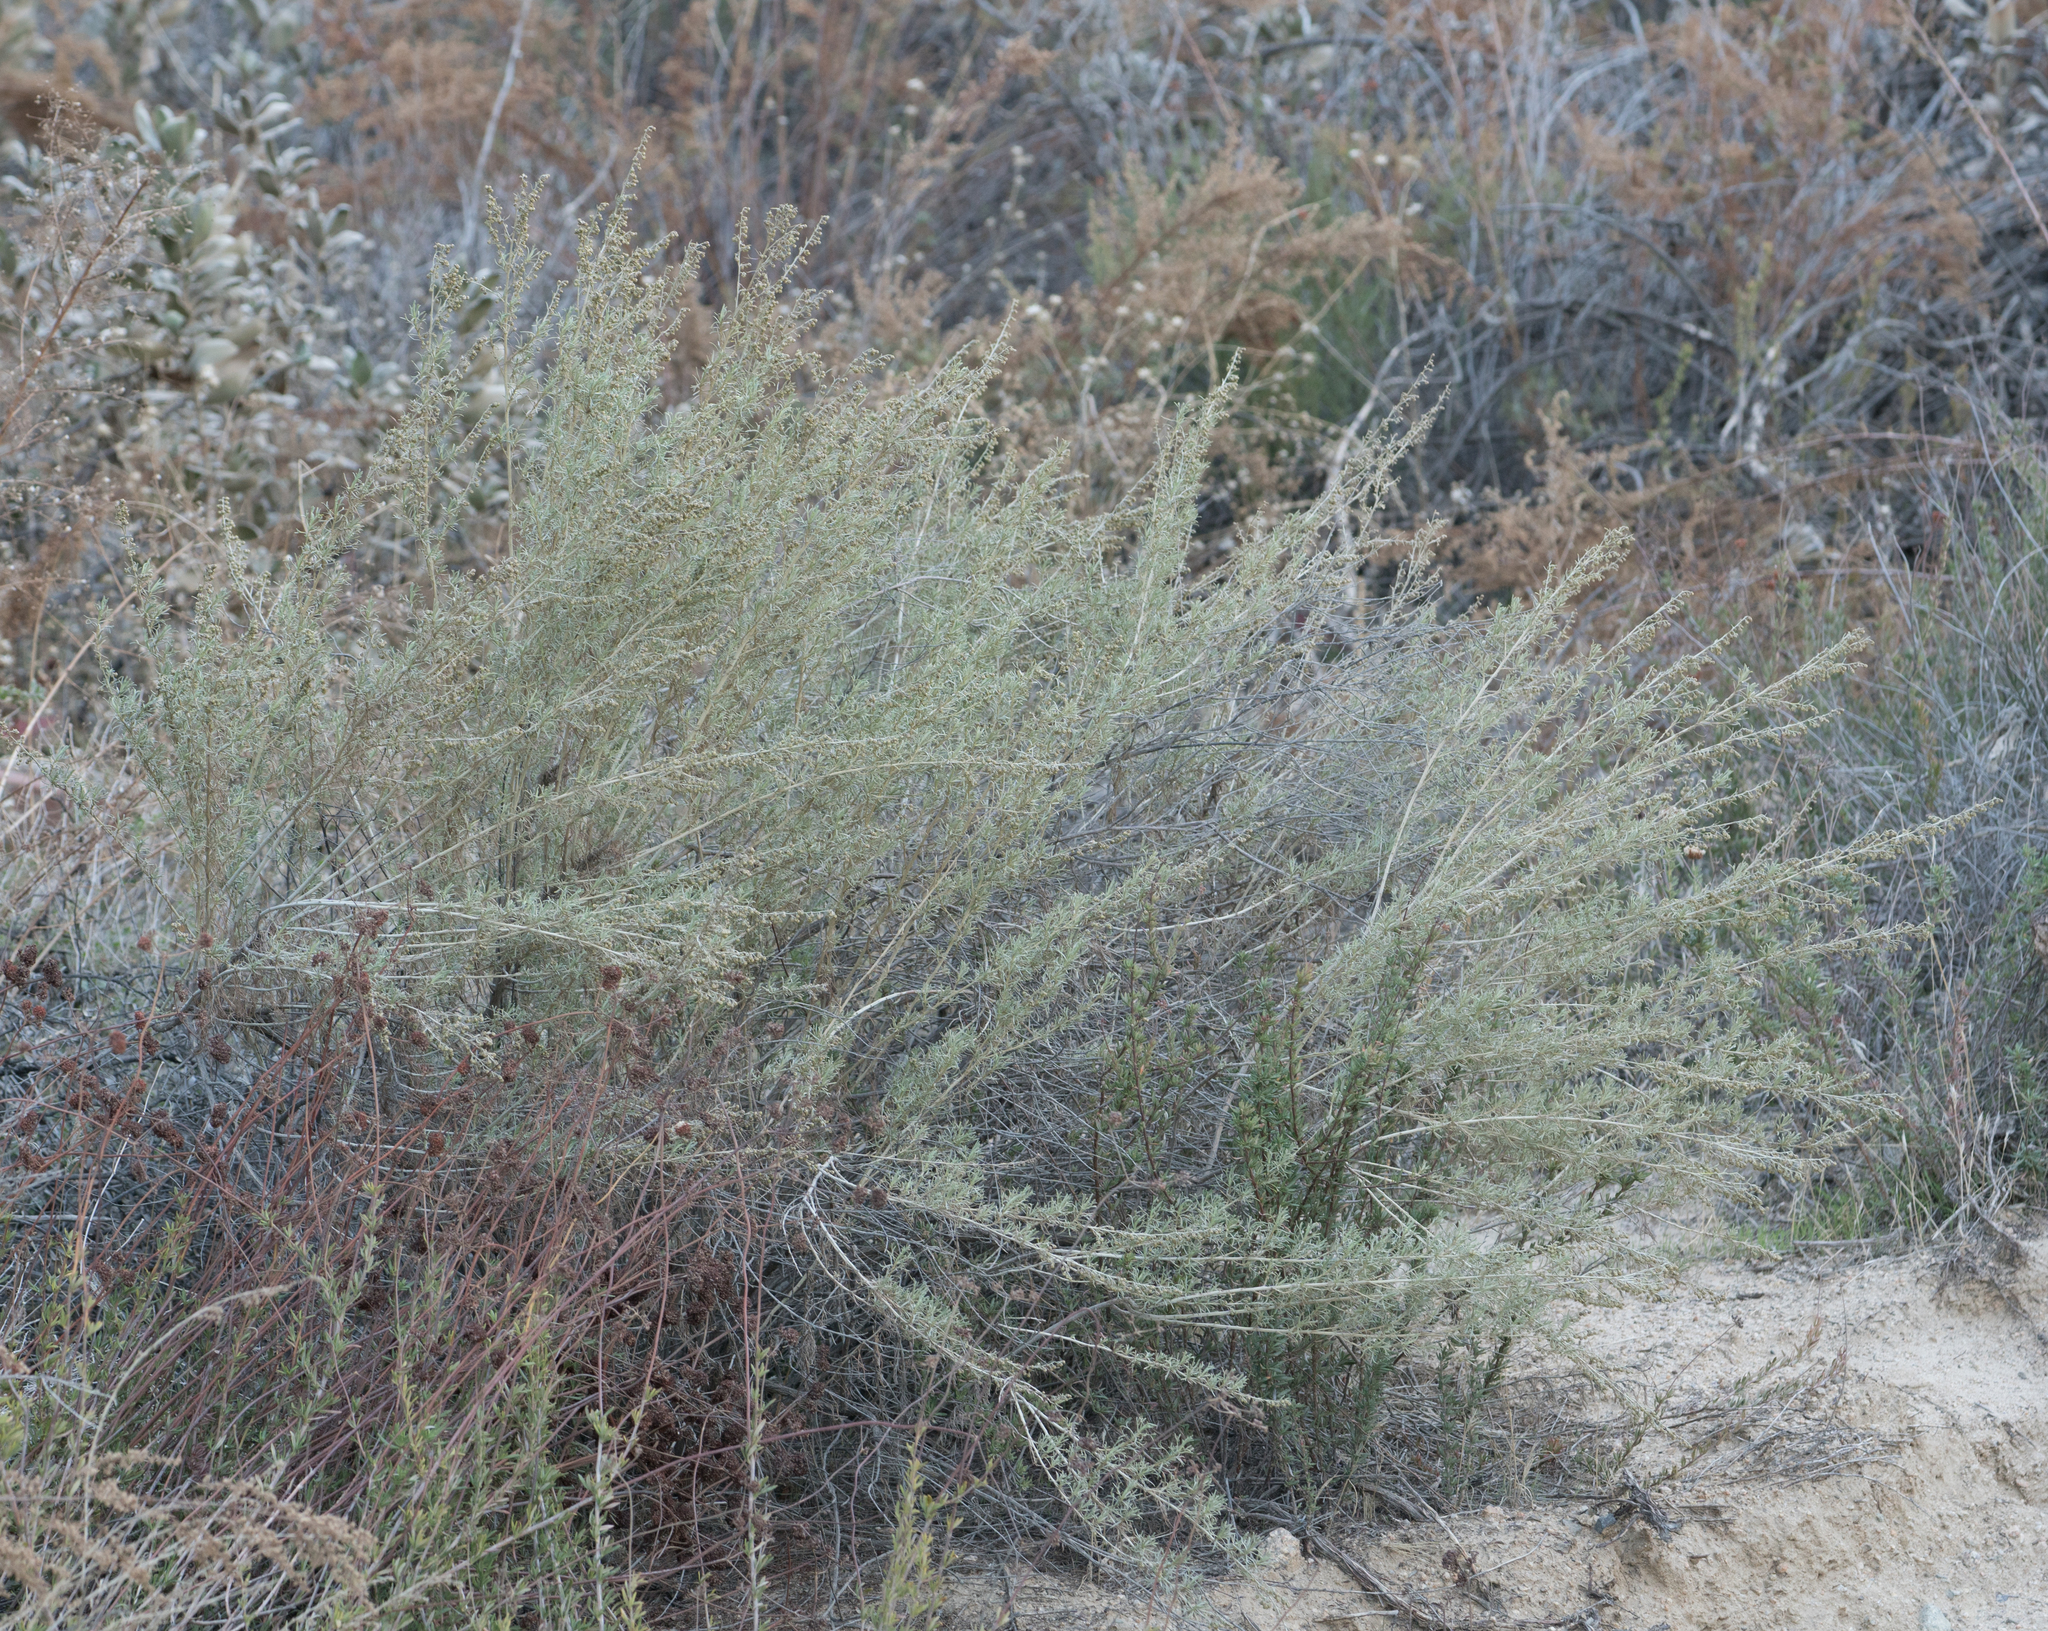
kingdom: Plantae
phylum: Tracheophyta
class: Magnoliopsida
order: Asterales
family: Asteraceae
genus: Artemisia
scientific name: Artemisia californica
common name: California sagebrush
